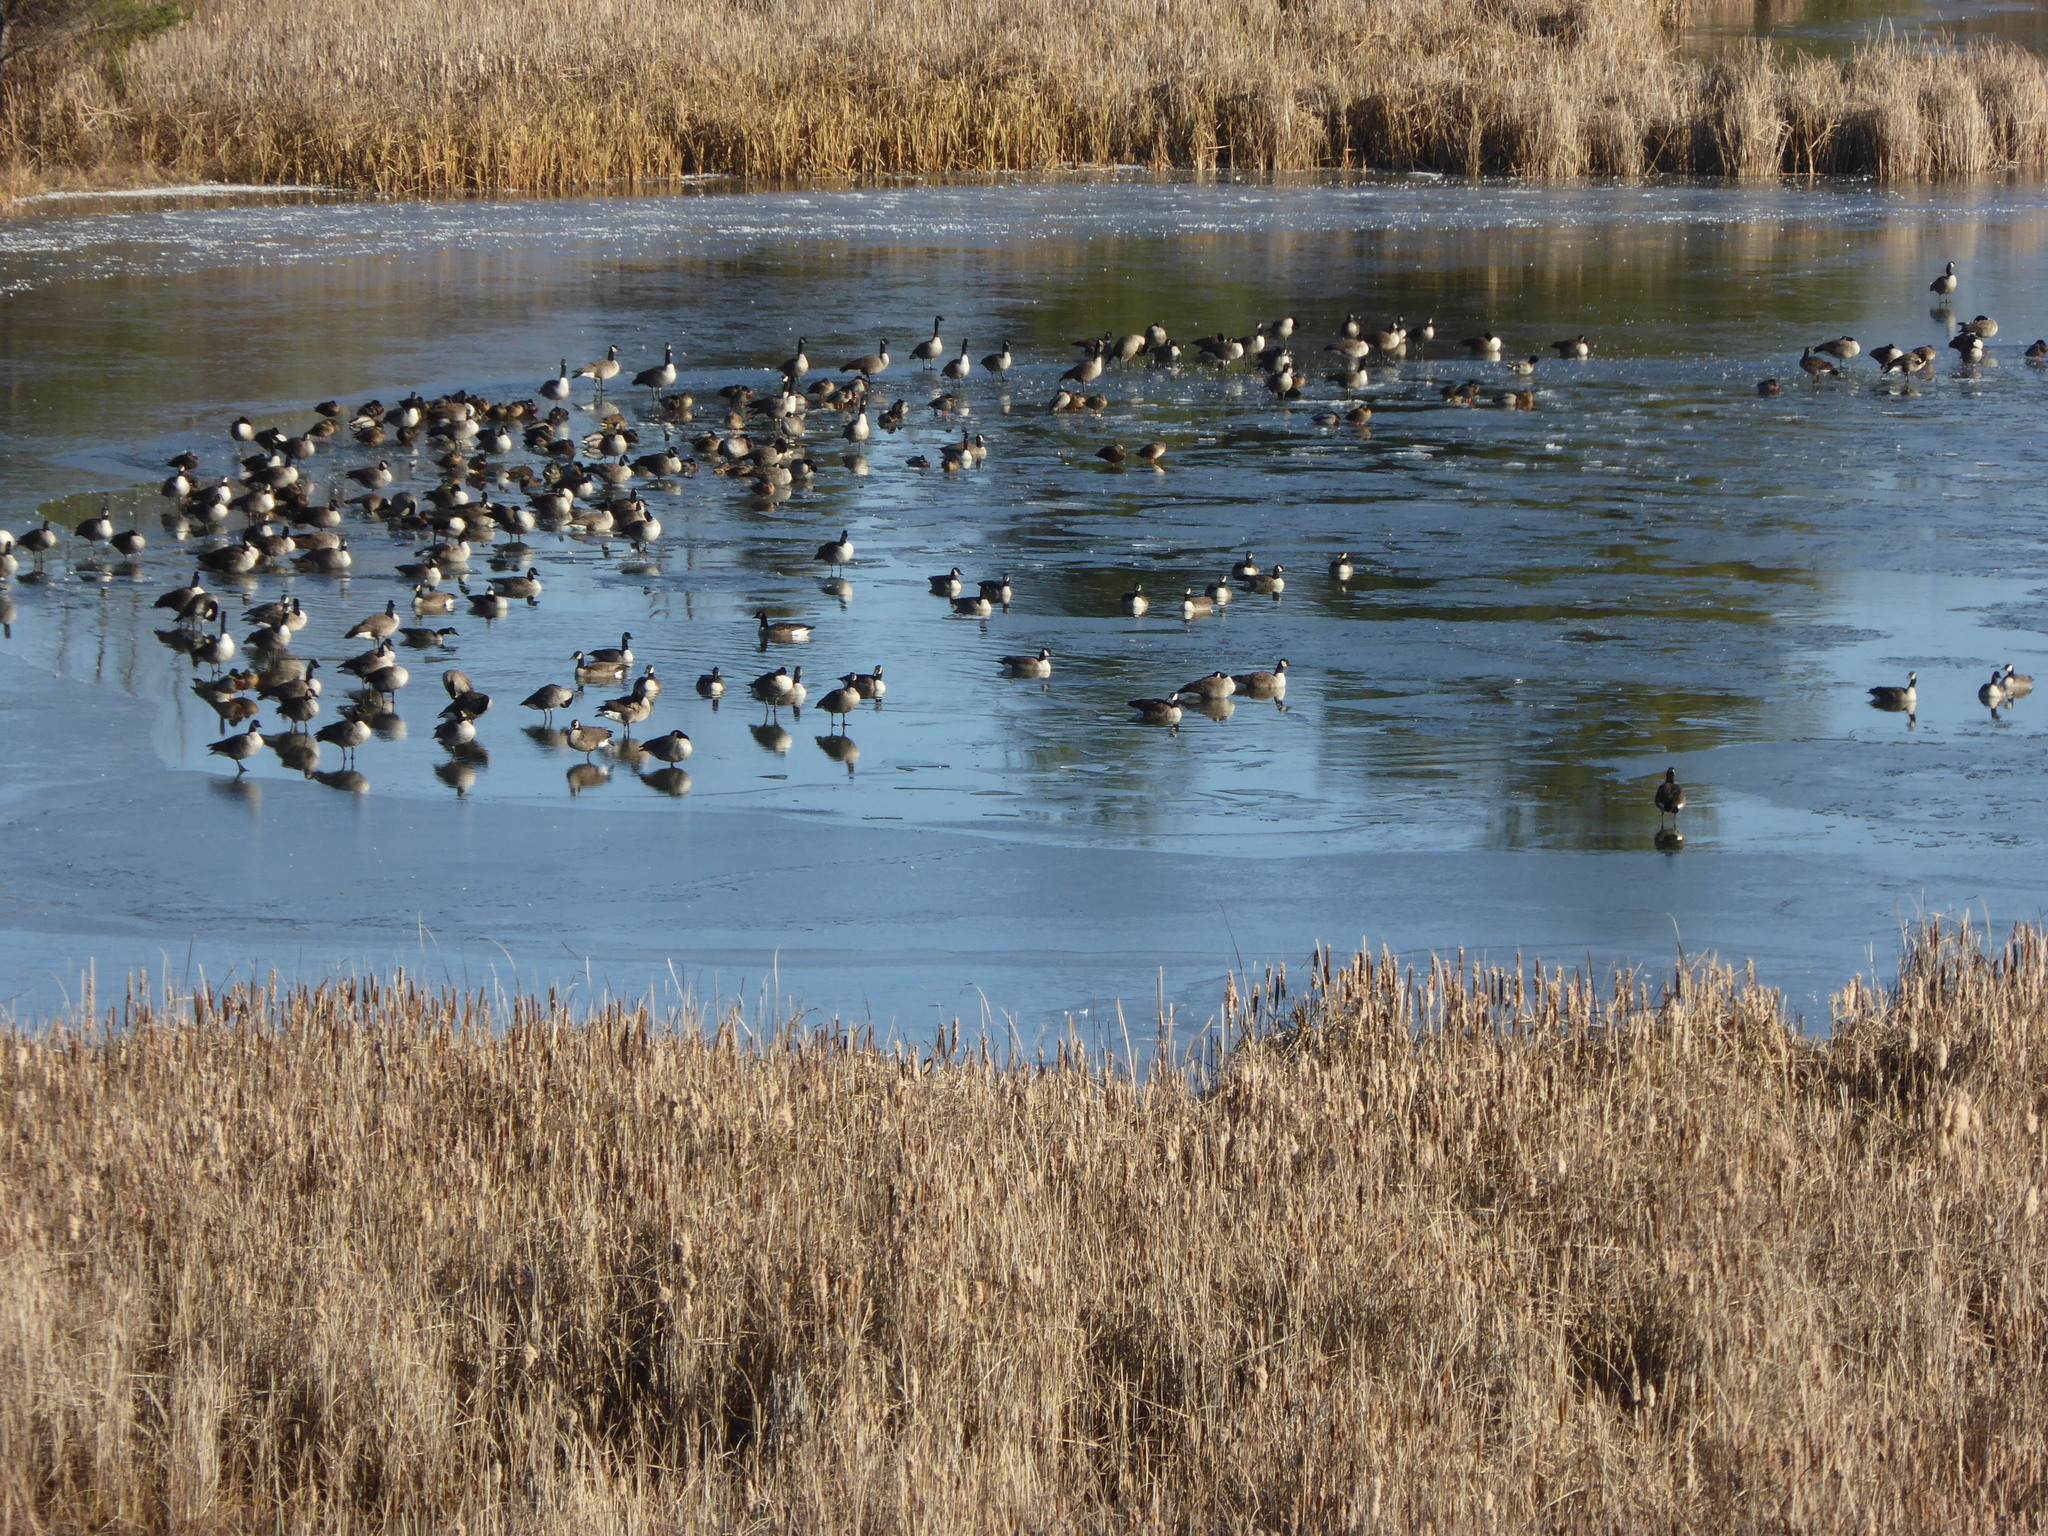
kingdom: Animalia
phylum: Chordata
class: Aves
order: Anseriformes
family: Anatidae
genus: Branta
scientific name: Branta canadensis
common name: Canada goose
